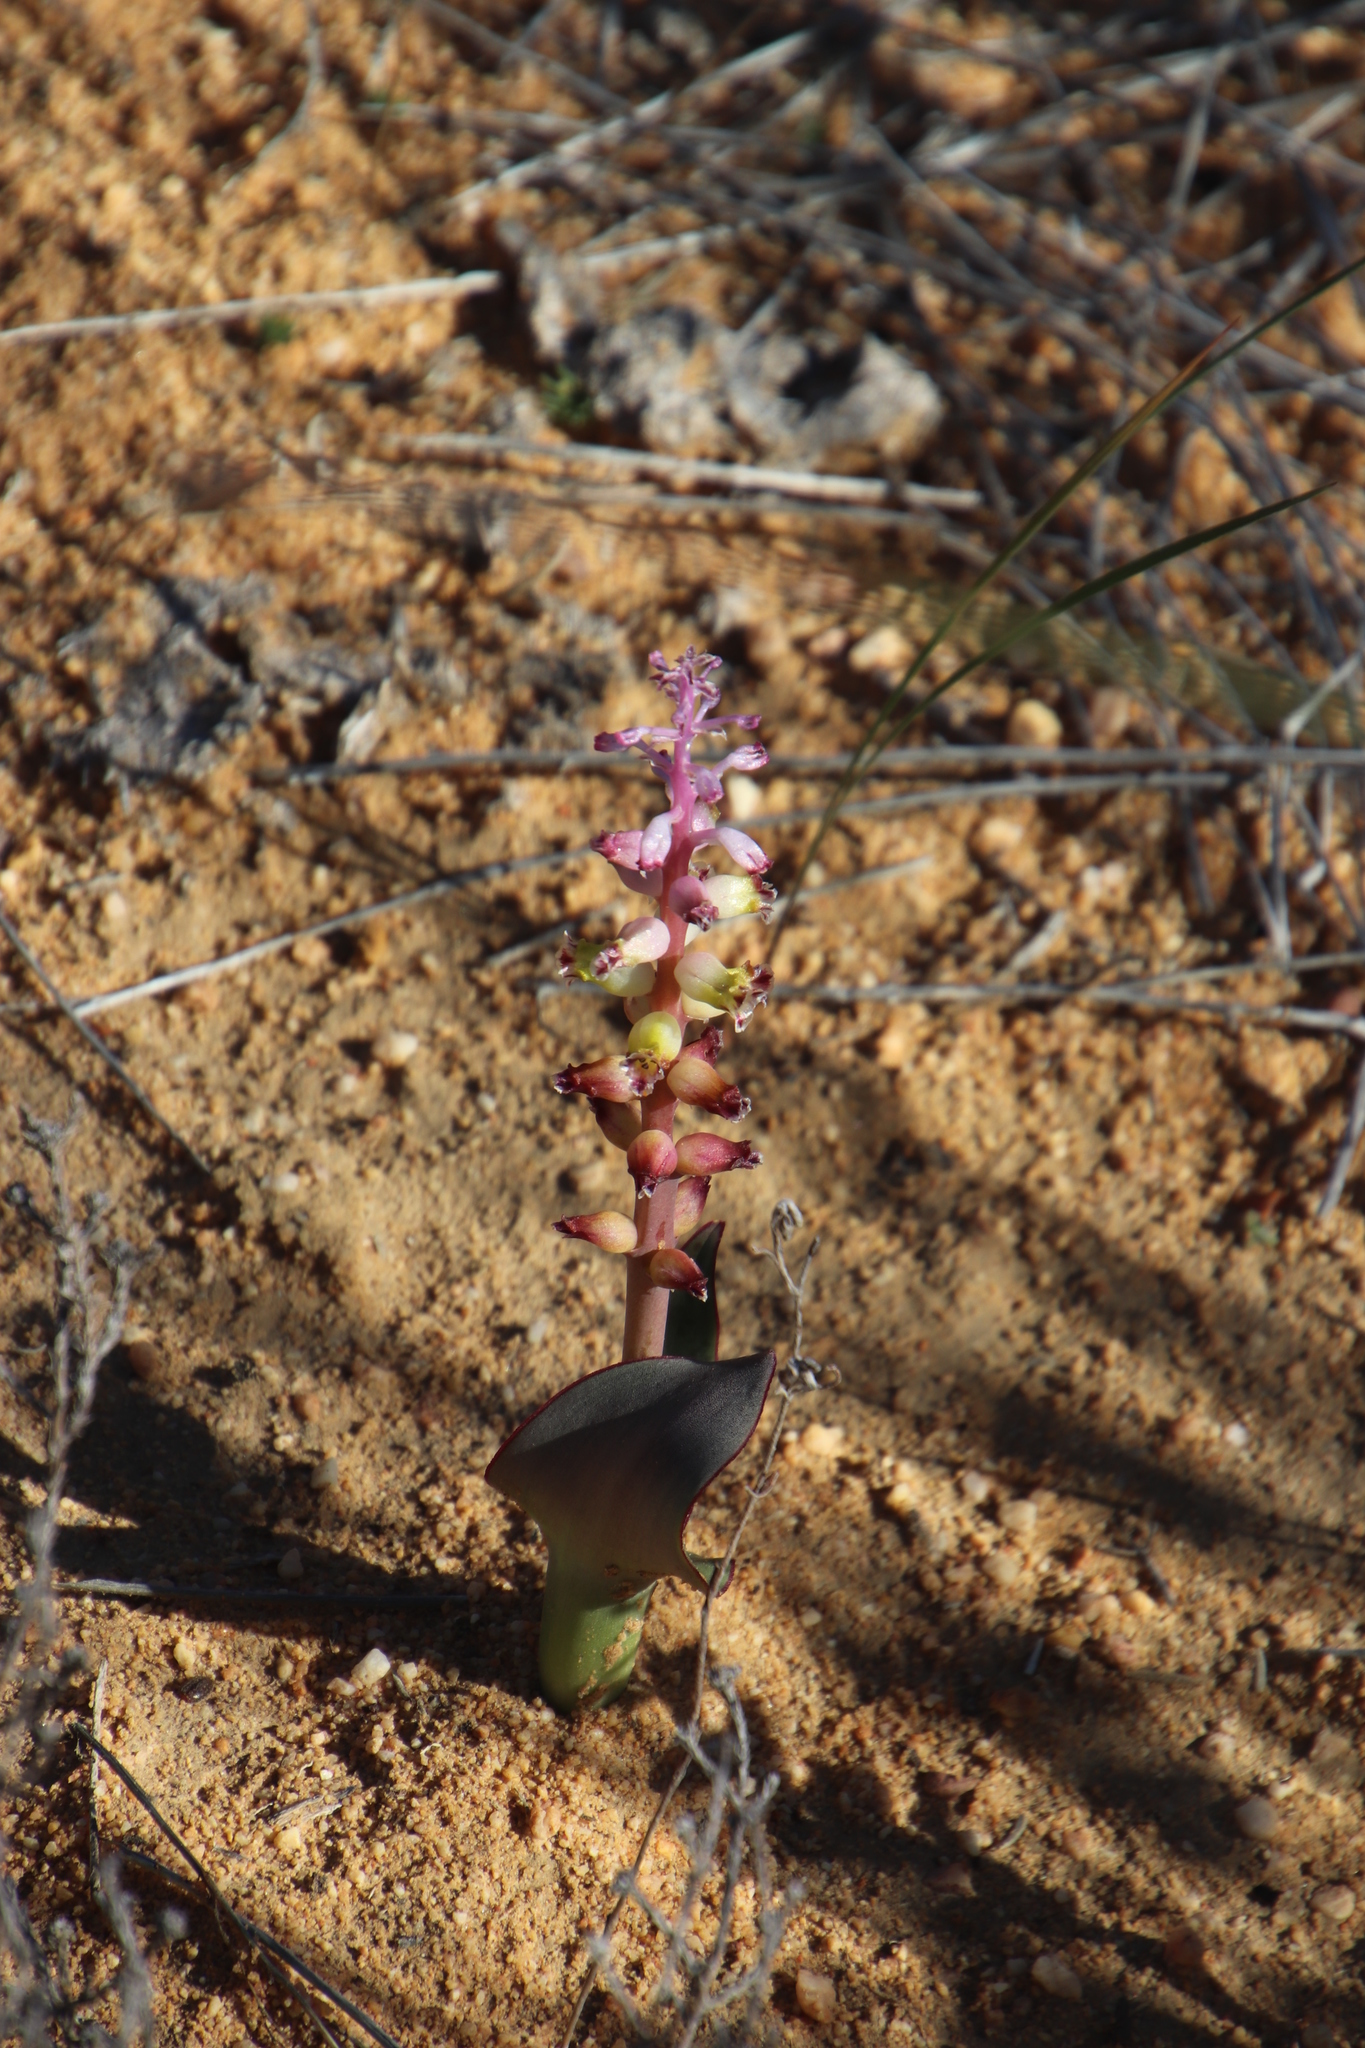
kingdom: Plantae
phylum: Tracheophyta
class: Liliopsida
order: Asparagales
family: Asparagaceae
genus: Lachenalia
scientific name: Lachenalia membranacea
